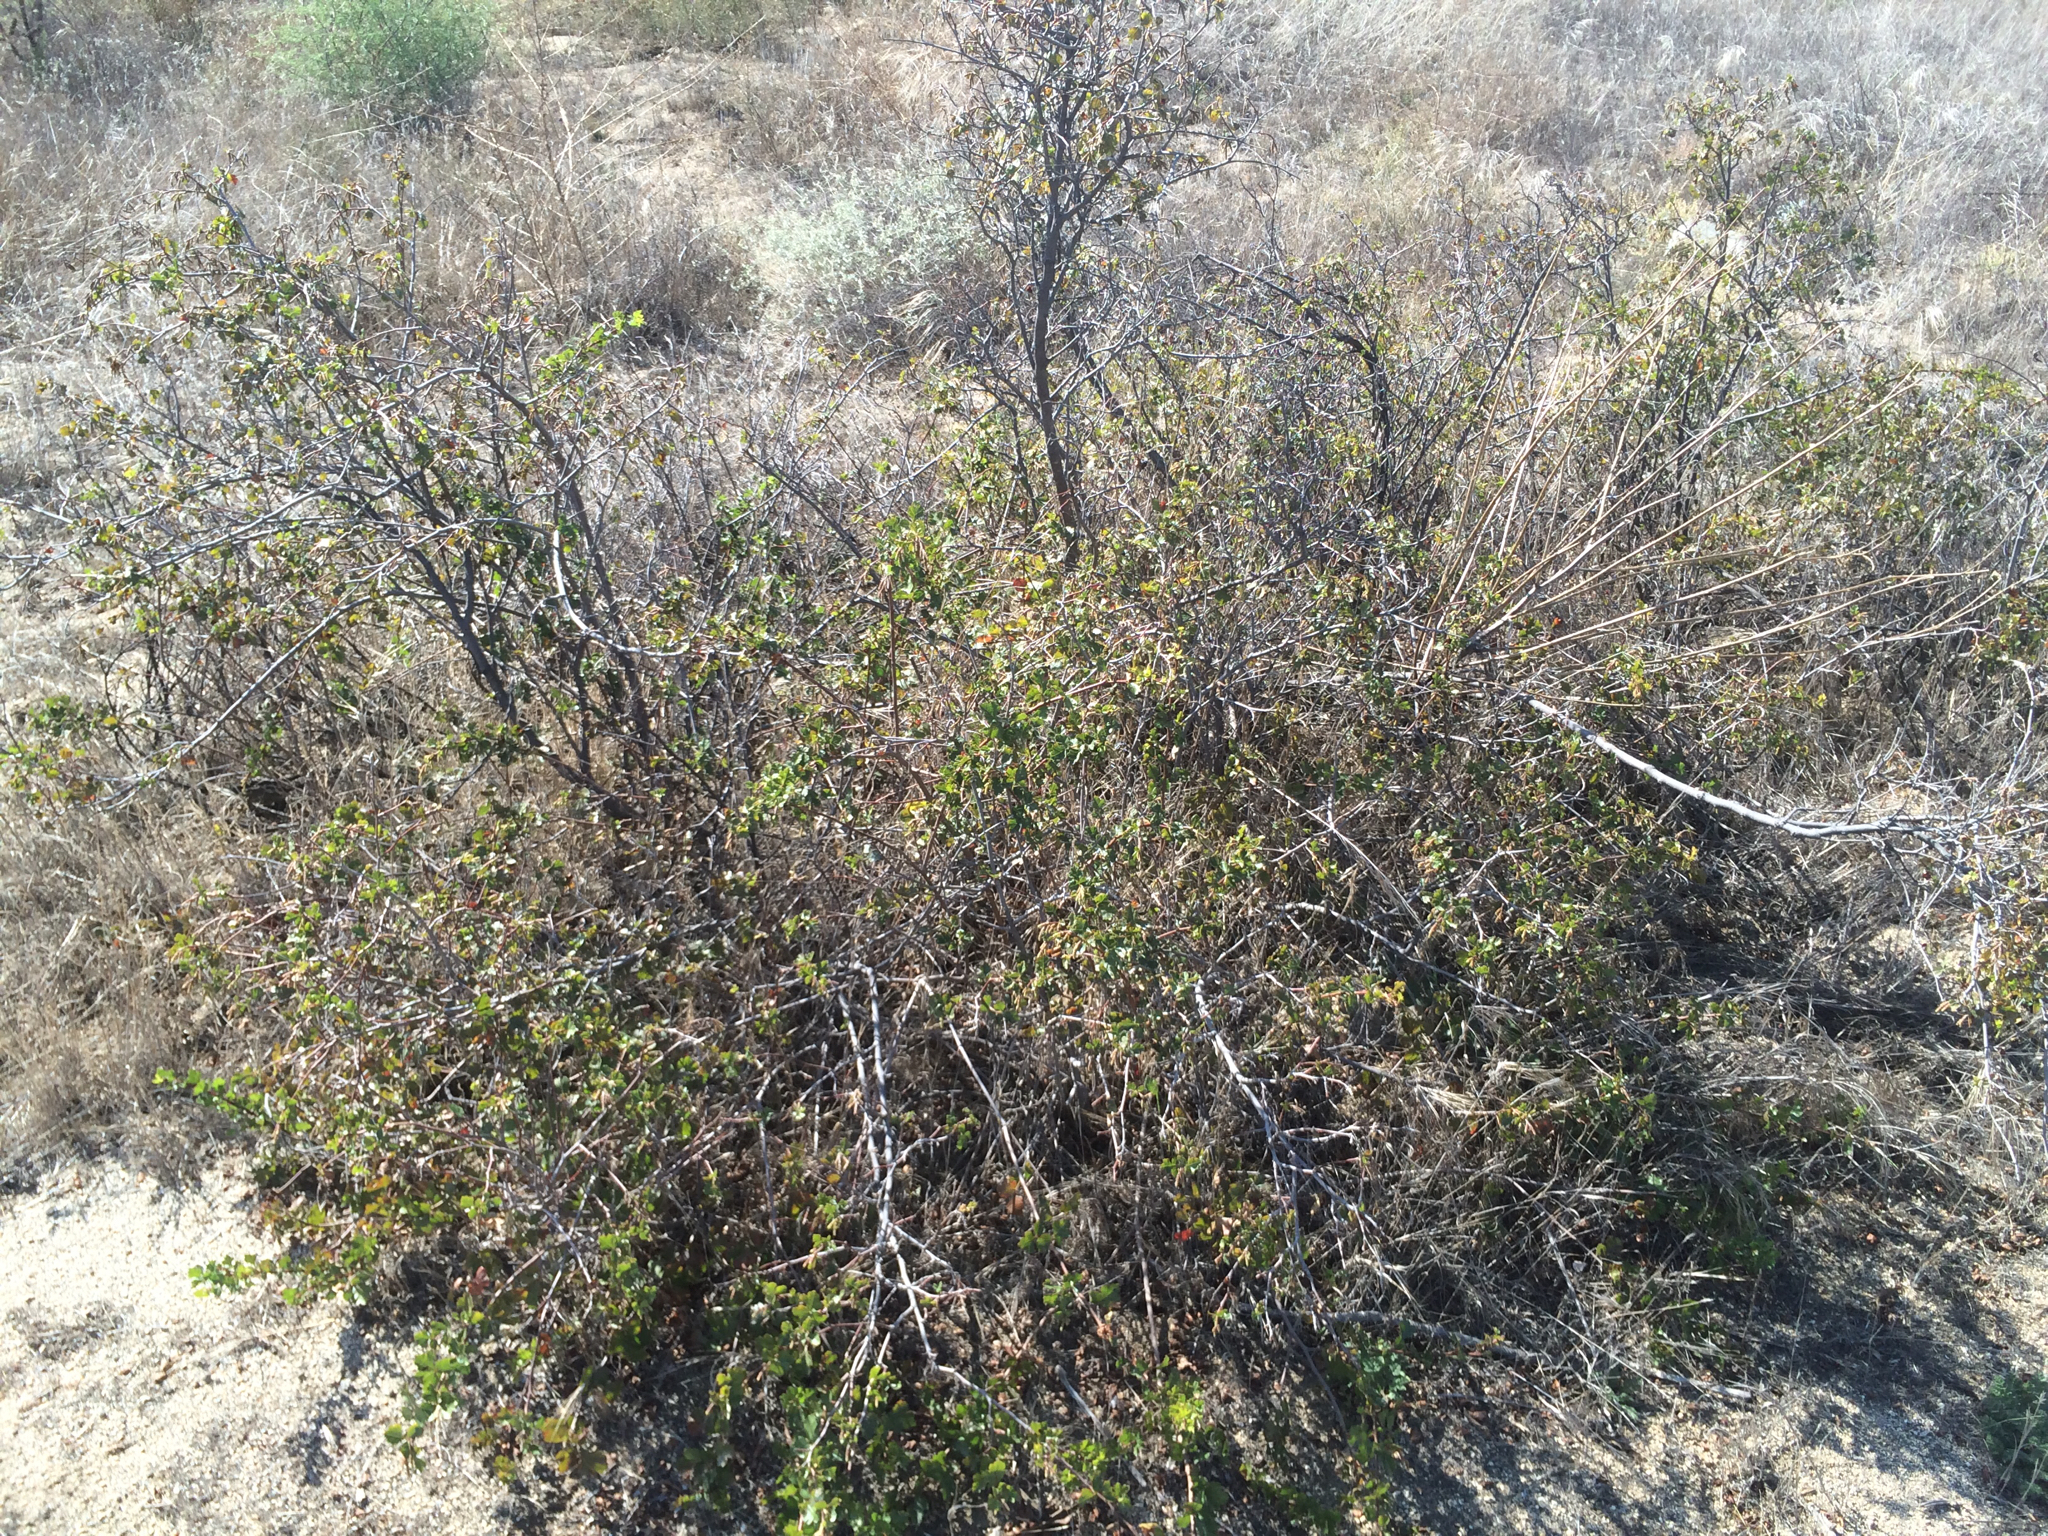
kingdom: Plantae
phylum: Tracheophyta
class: Magnoliopsida
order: Sapindales
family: Anacardiaceae
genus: Rhus
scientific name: Rhus aromatica
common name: Aromatic sumac
